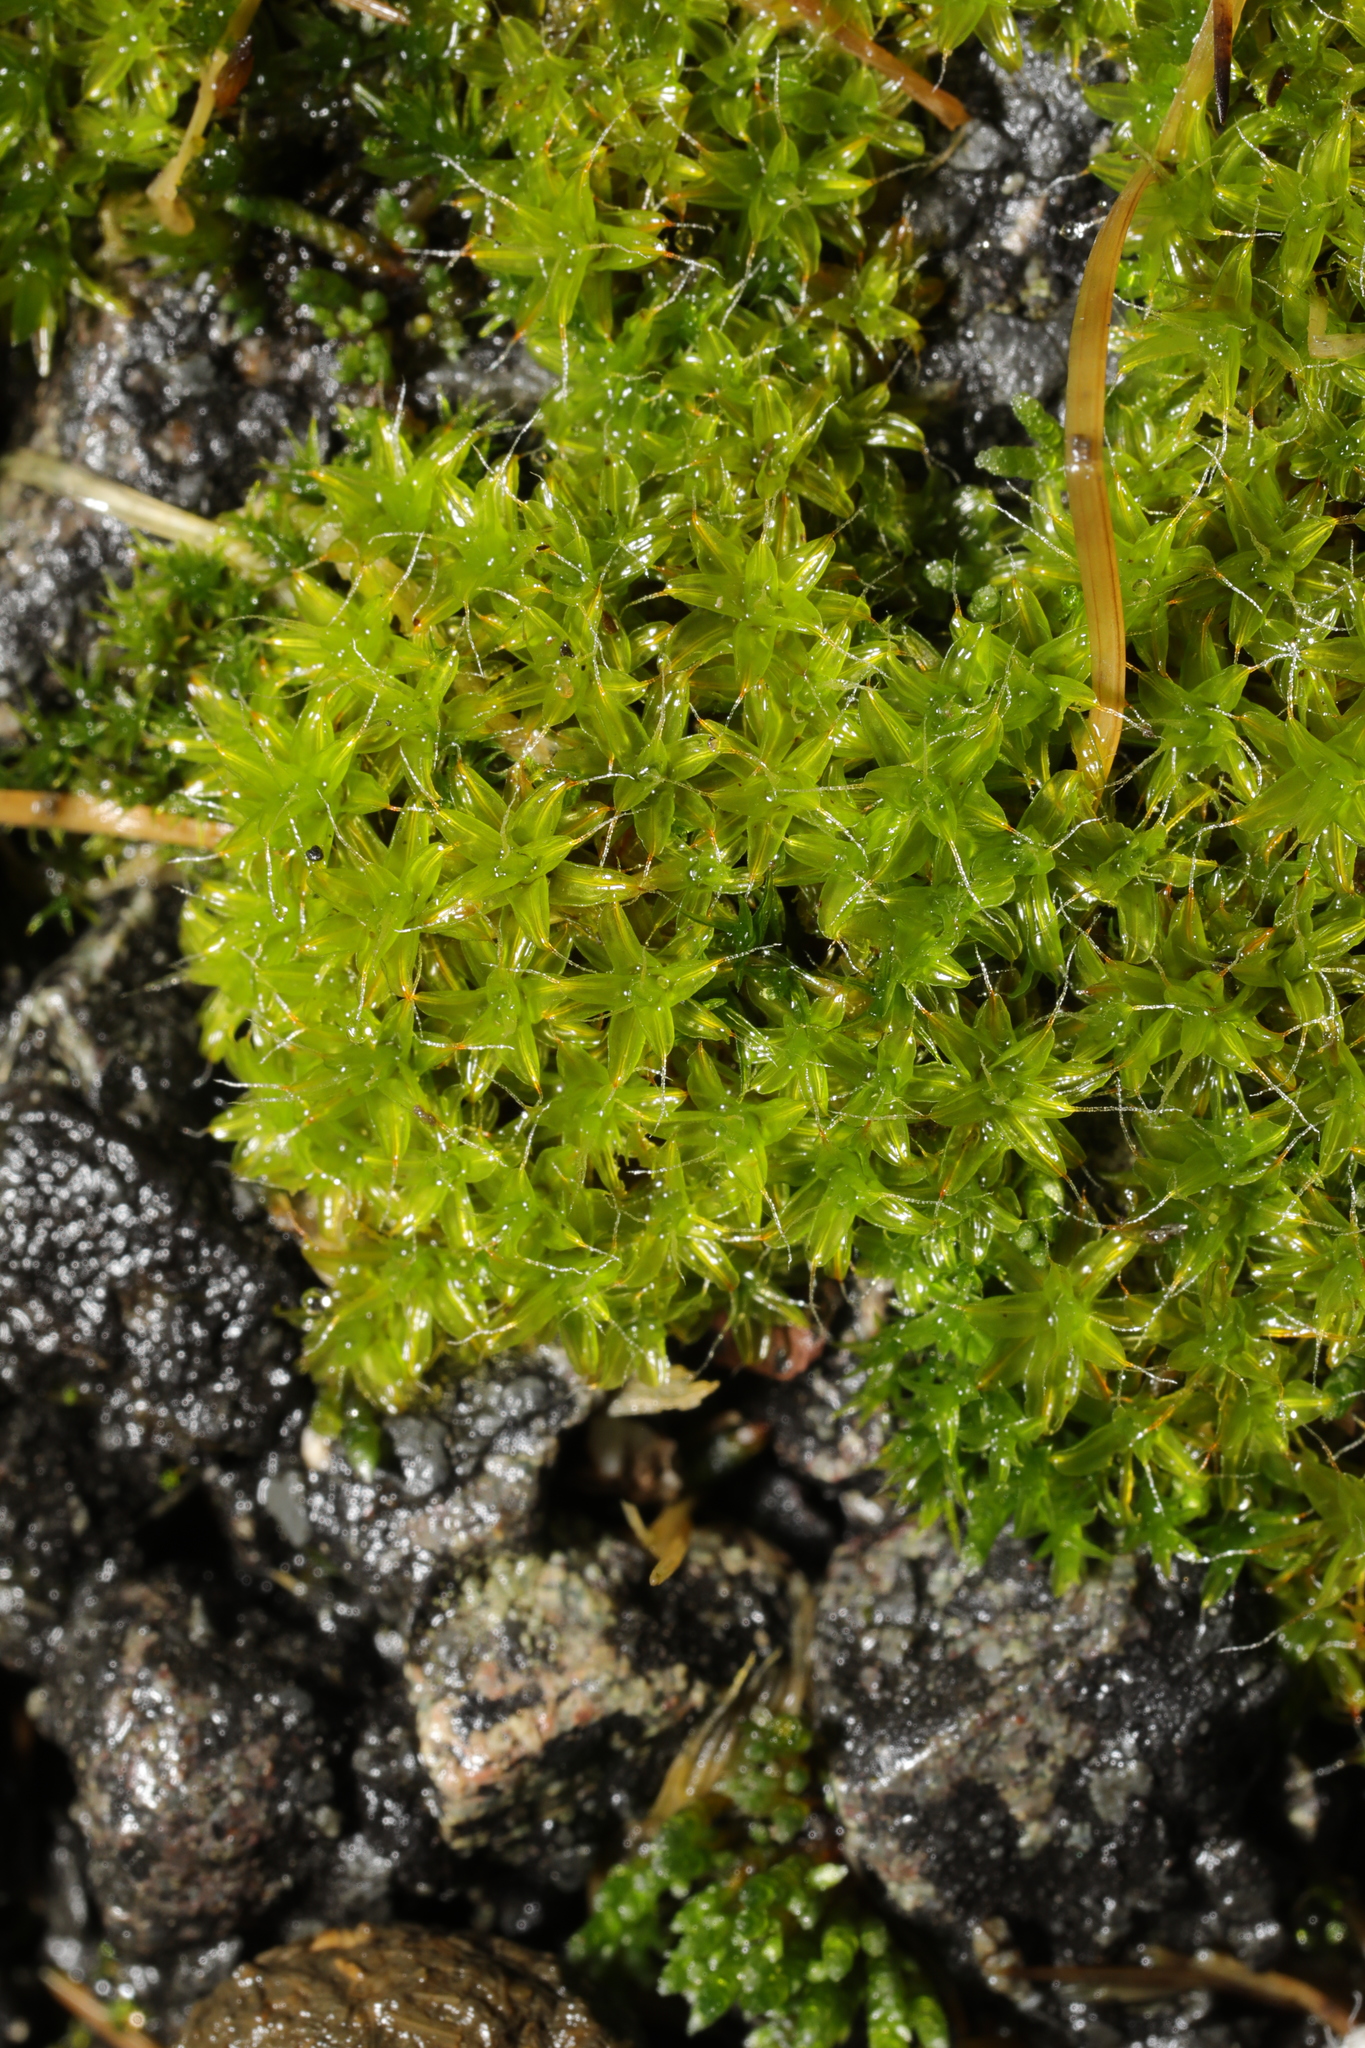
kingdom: Plantae
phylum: Bryophyta
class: Bryopsida
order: Pottiales
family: Pottiaceae
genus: Syntrichia
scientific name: Syntrichia montana
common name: Intermediate screw-moss
